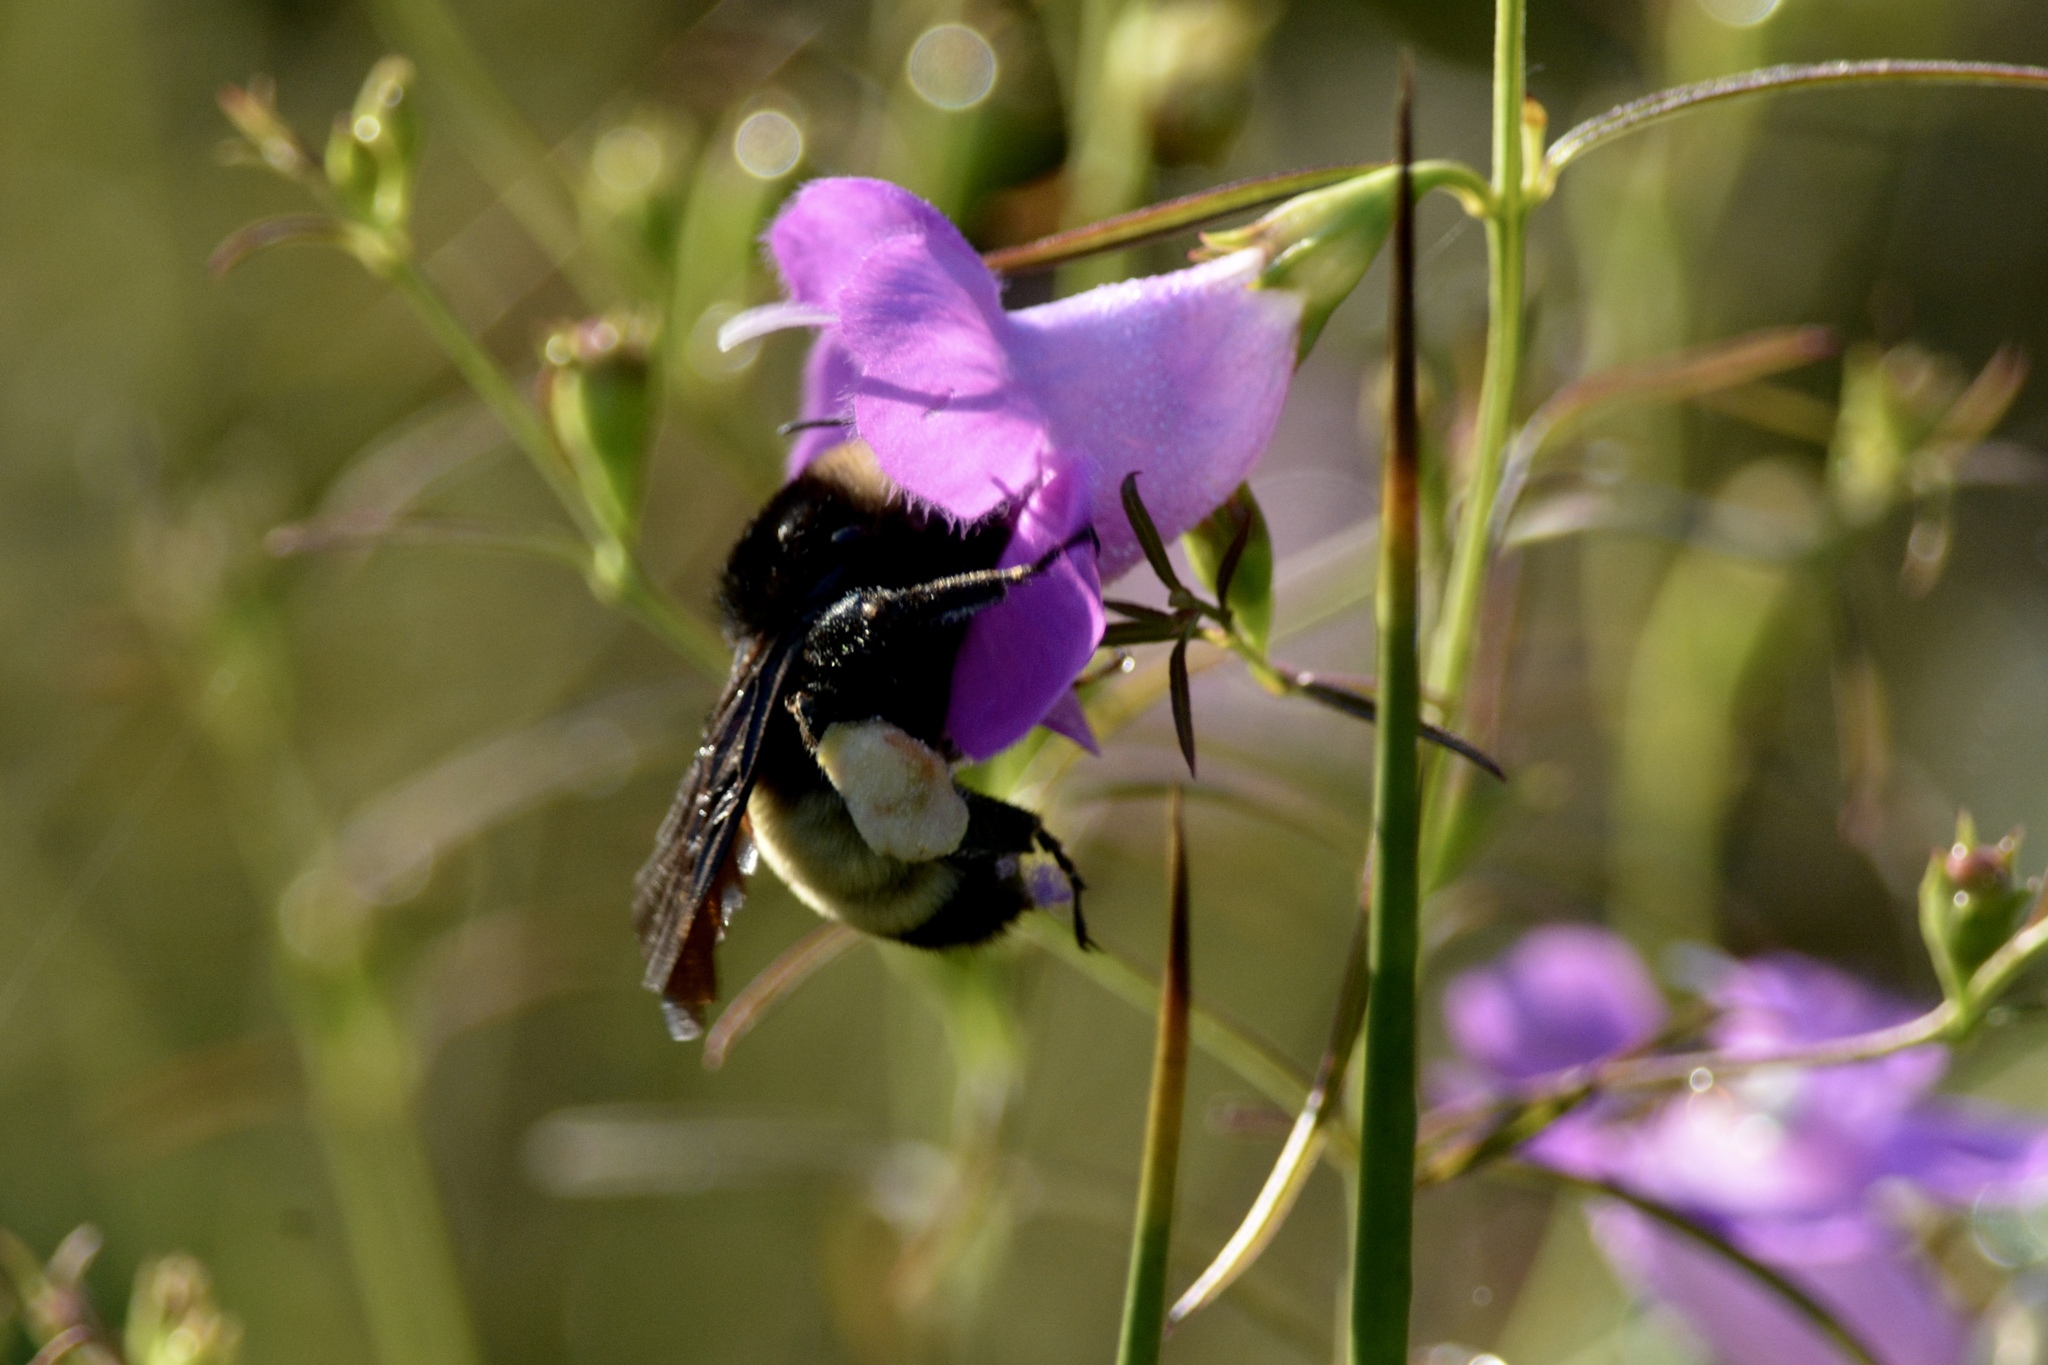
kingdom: Animalia
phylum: Arthropoda
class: Insecta
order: Hymenoptera
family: Apidae
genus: Bombus
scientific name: Bombus pensylvanicus
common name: Bumble bee
